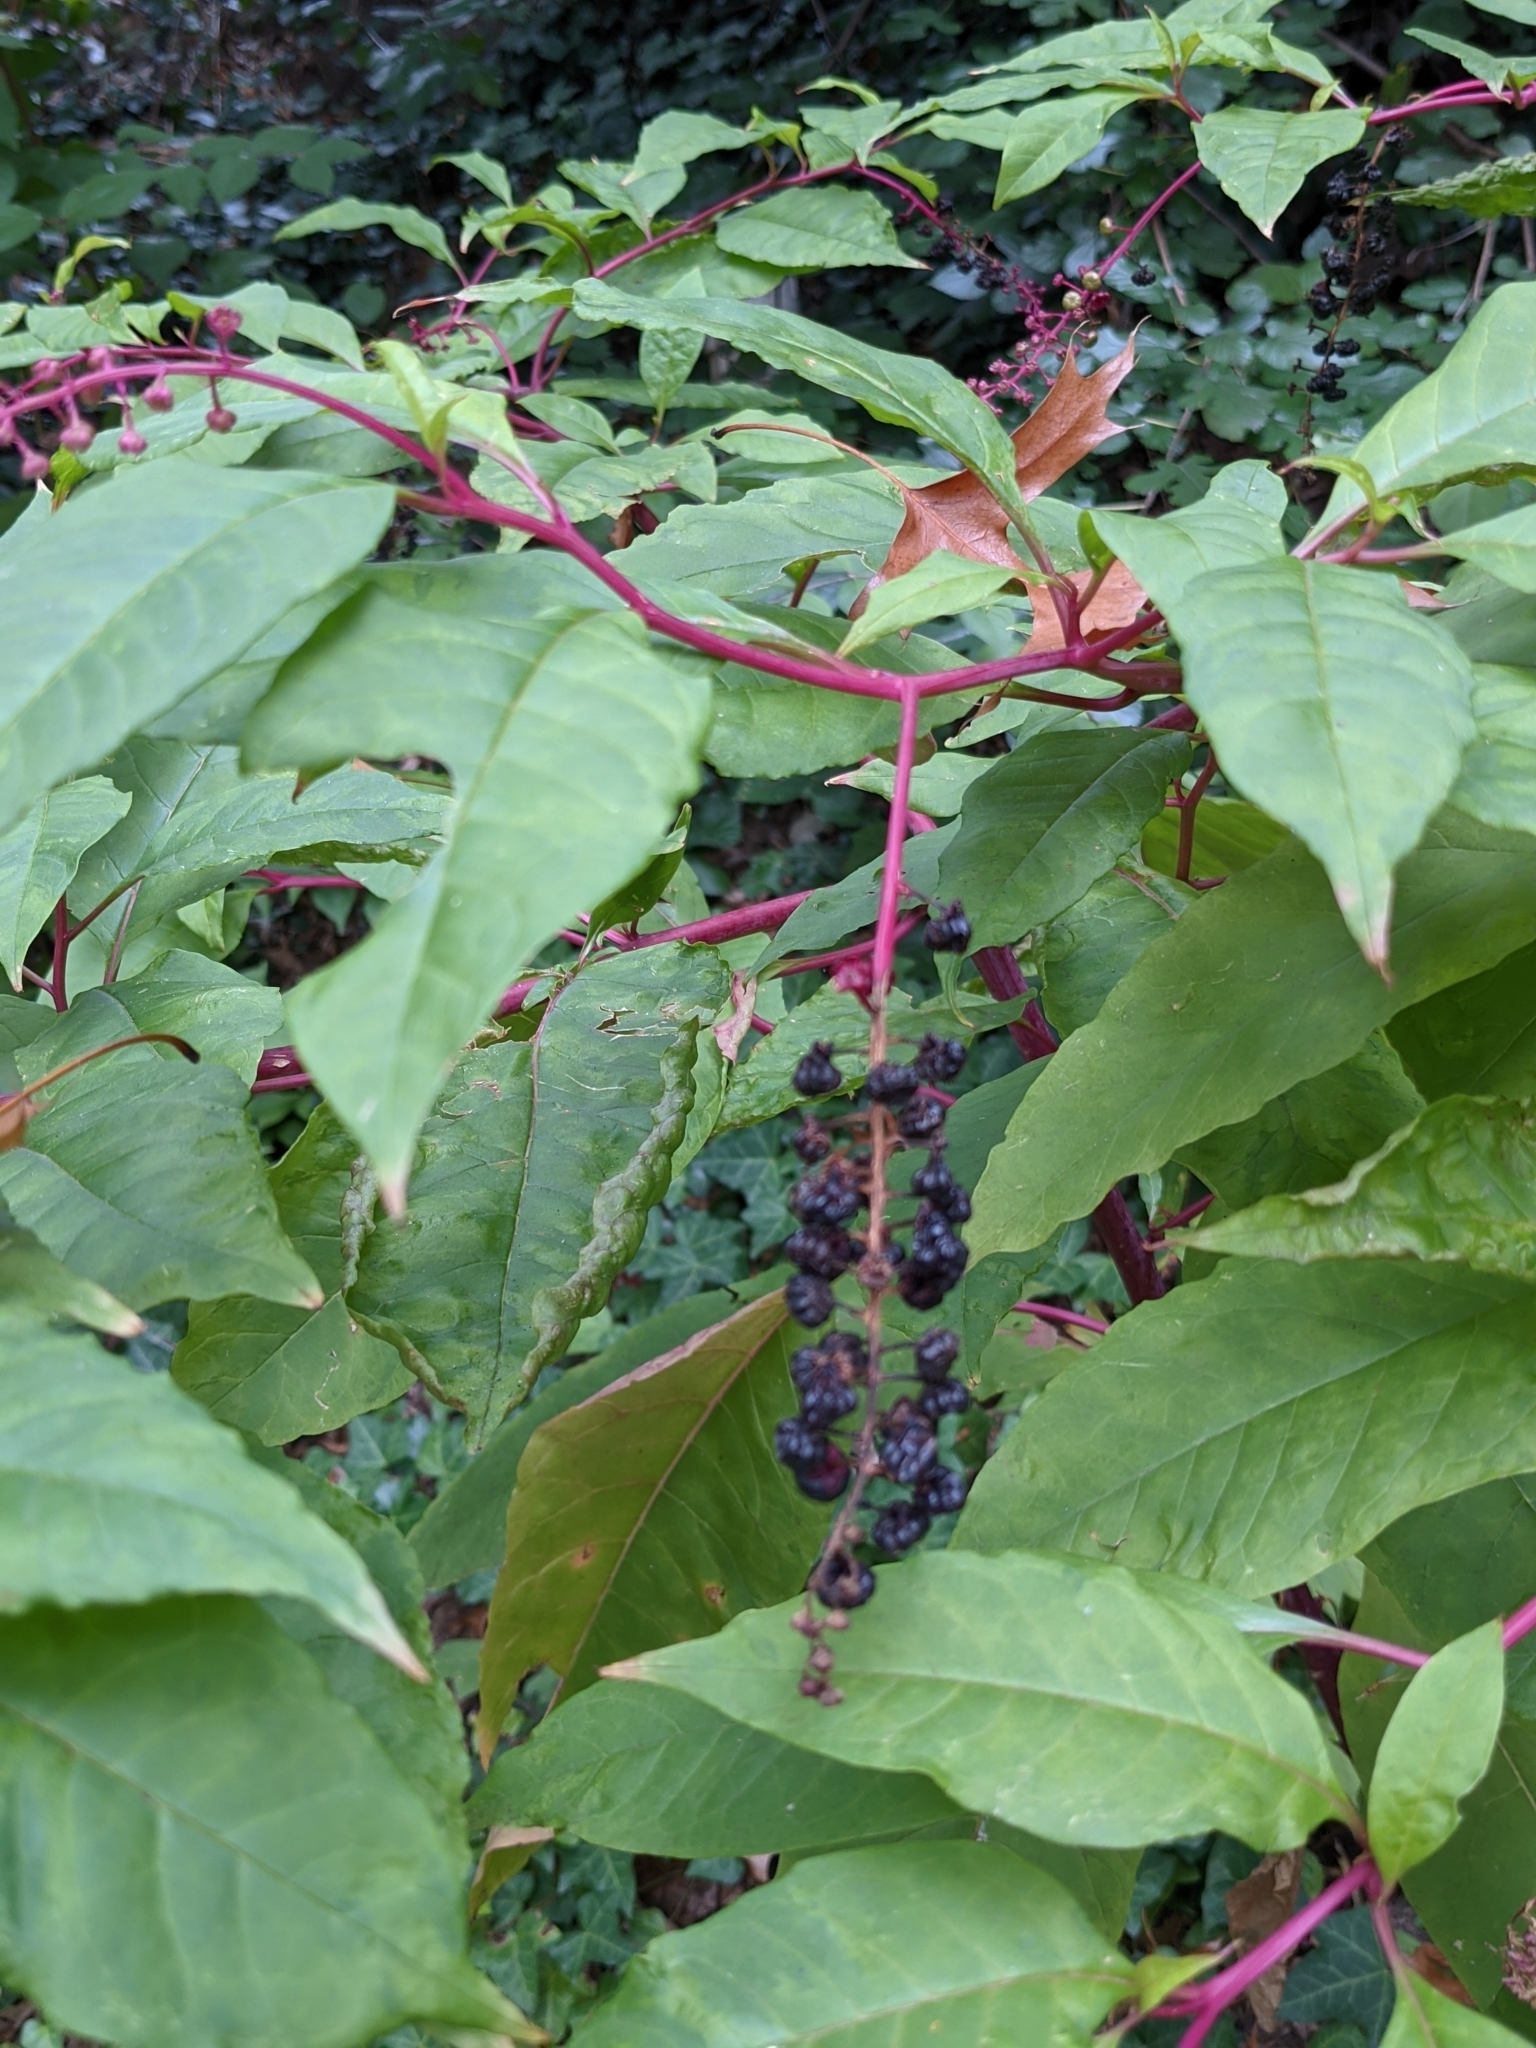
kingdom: Plantae
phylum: Tracheophyta
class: Magnoliopsida
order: Caryophyllales
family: Phytolaccaceae
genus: Phytolacca
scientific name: Phytolacca americana
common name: American pokeweed
